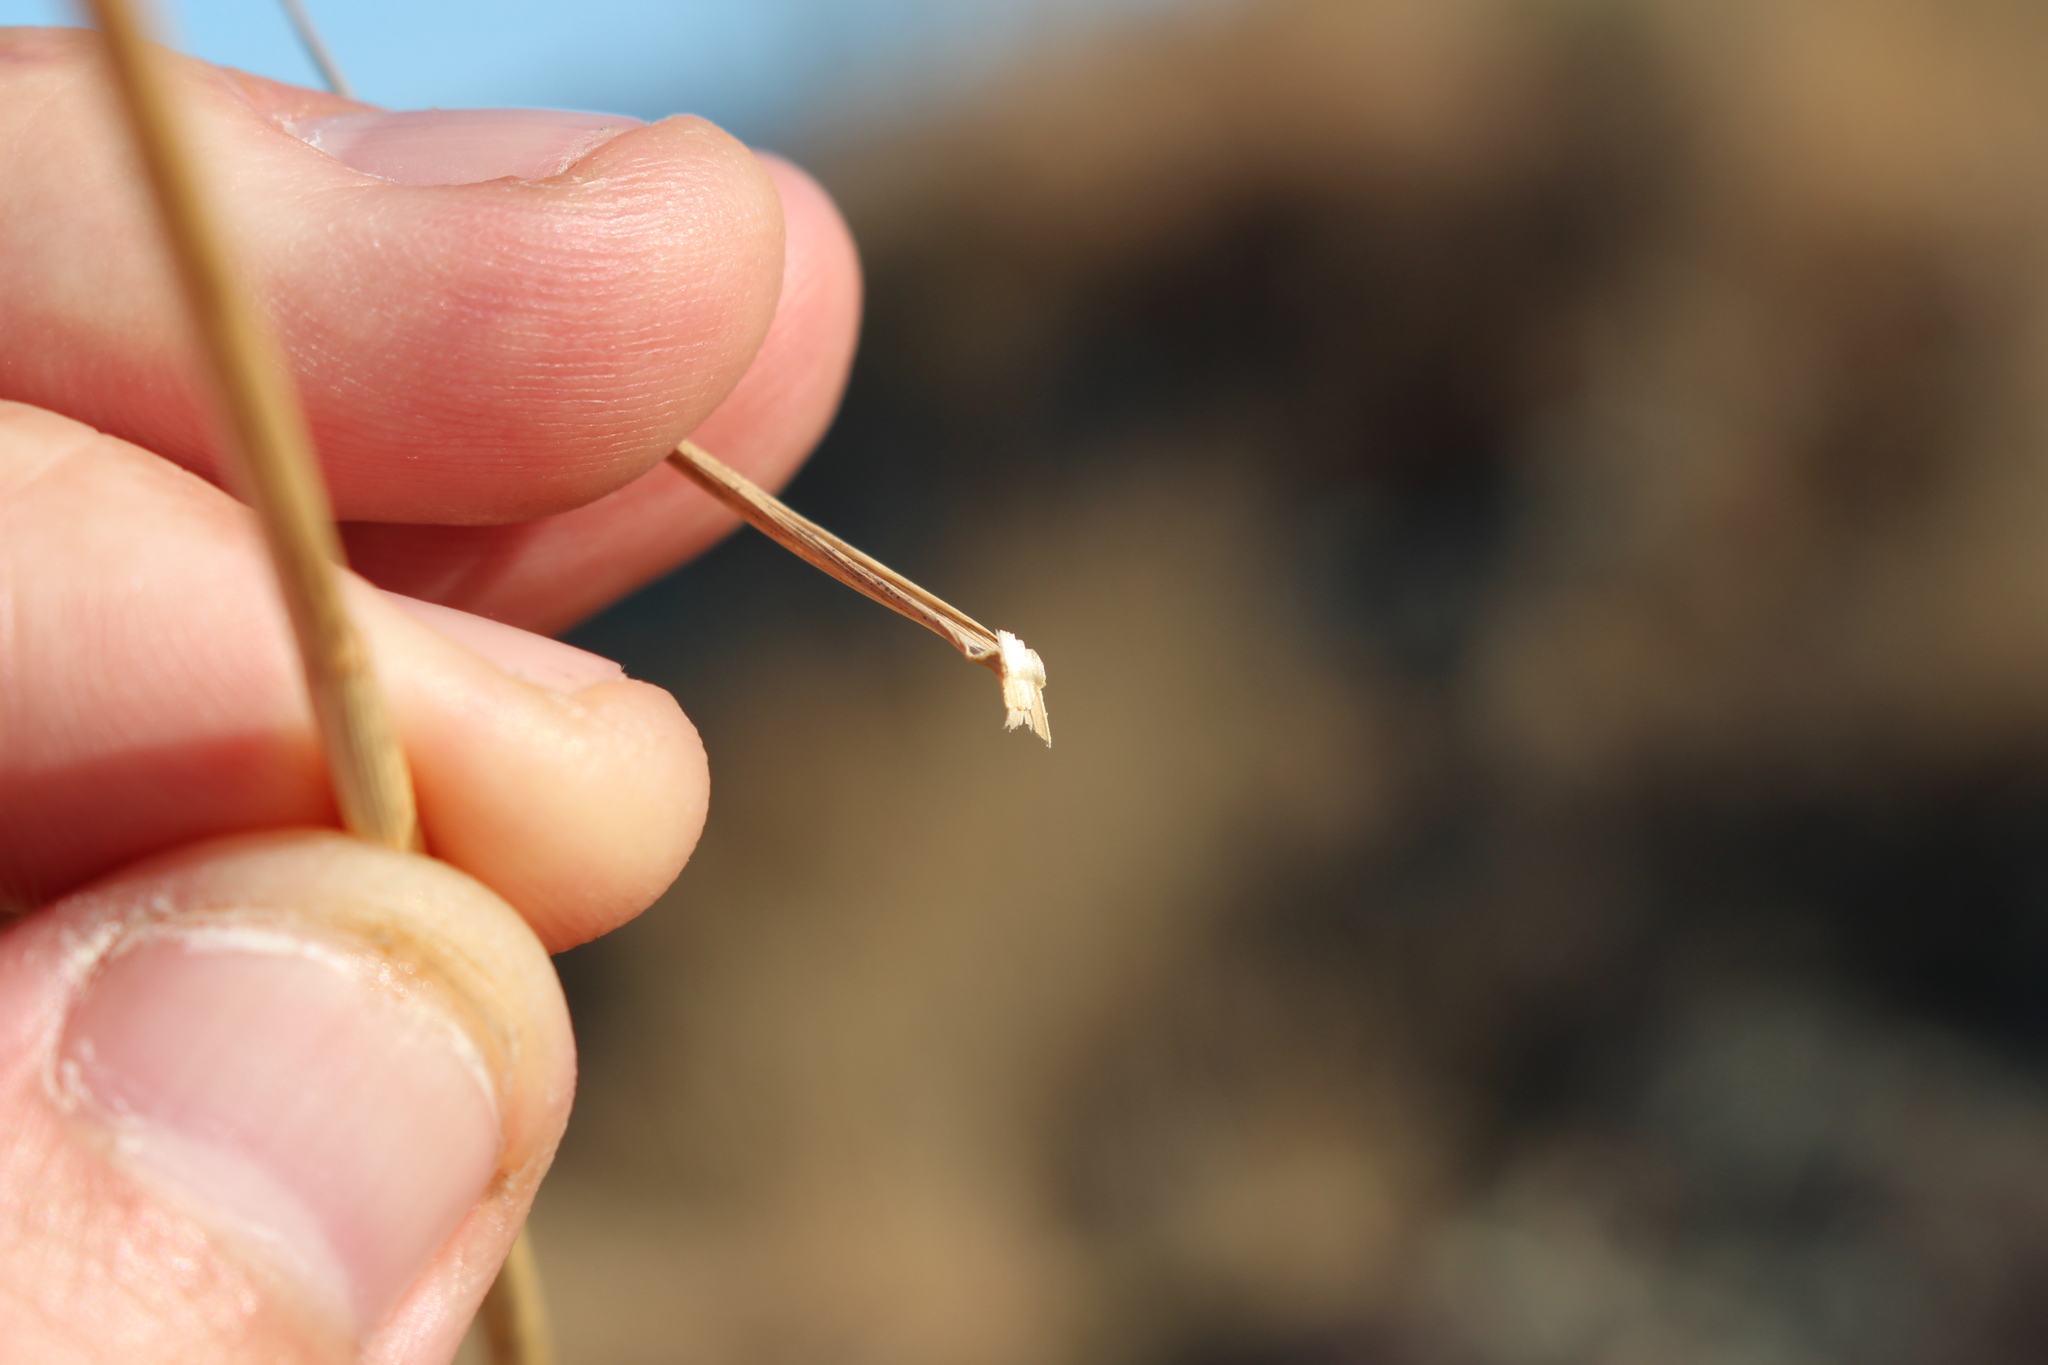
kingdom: Plantae
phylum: Tracheophyta
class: Liliopsida
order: Poales
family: Poaceae
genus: Dichelachne
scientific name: Dichelachne crinita
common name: Clovenfoot plumegrass
